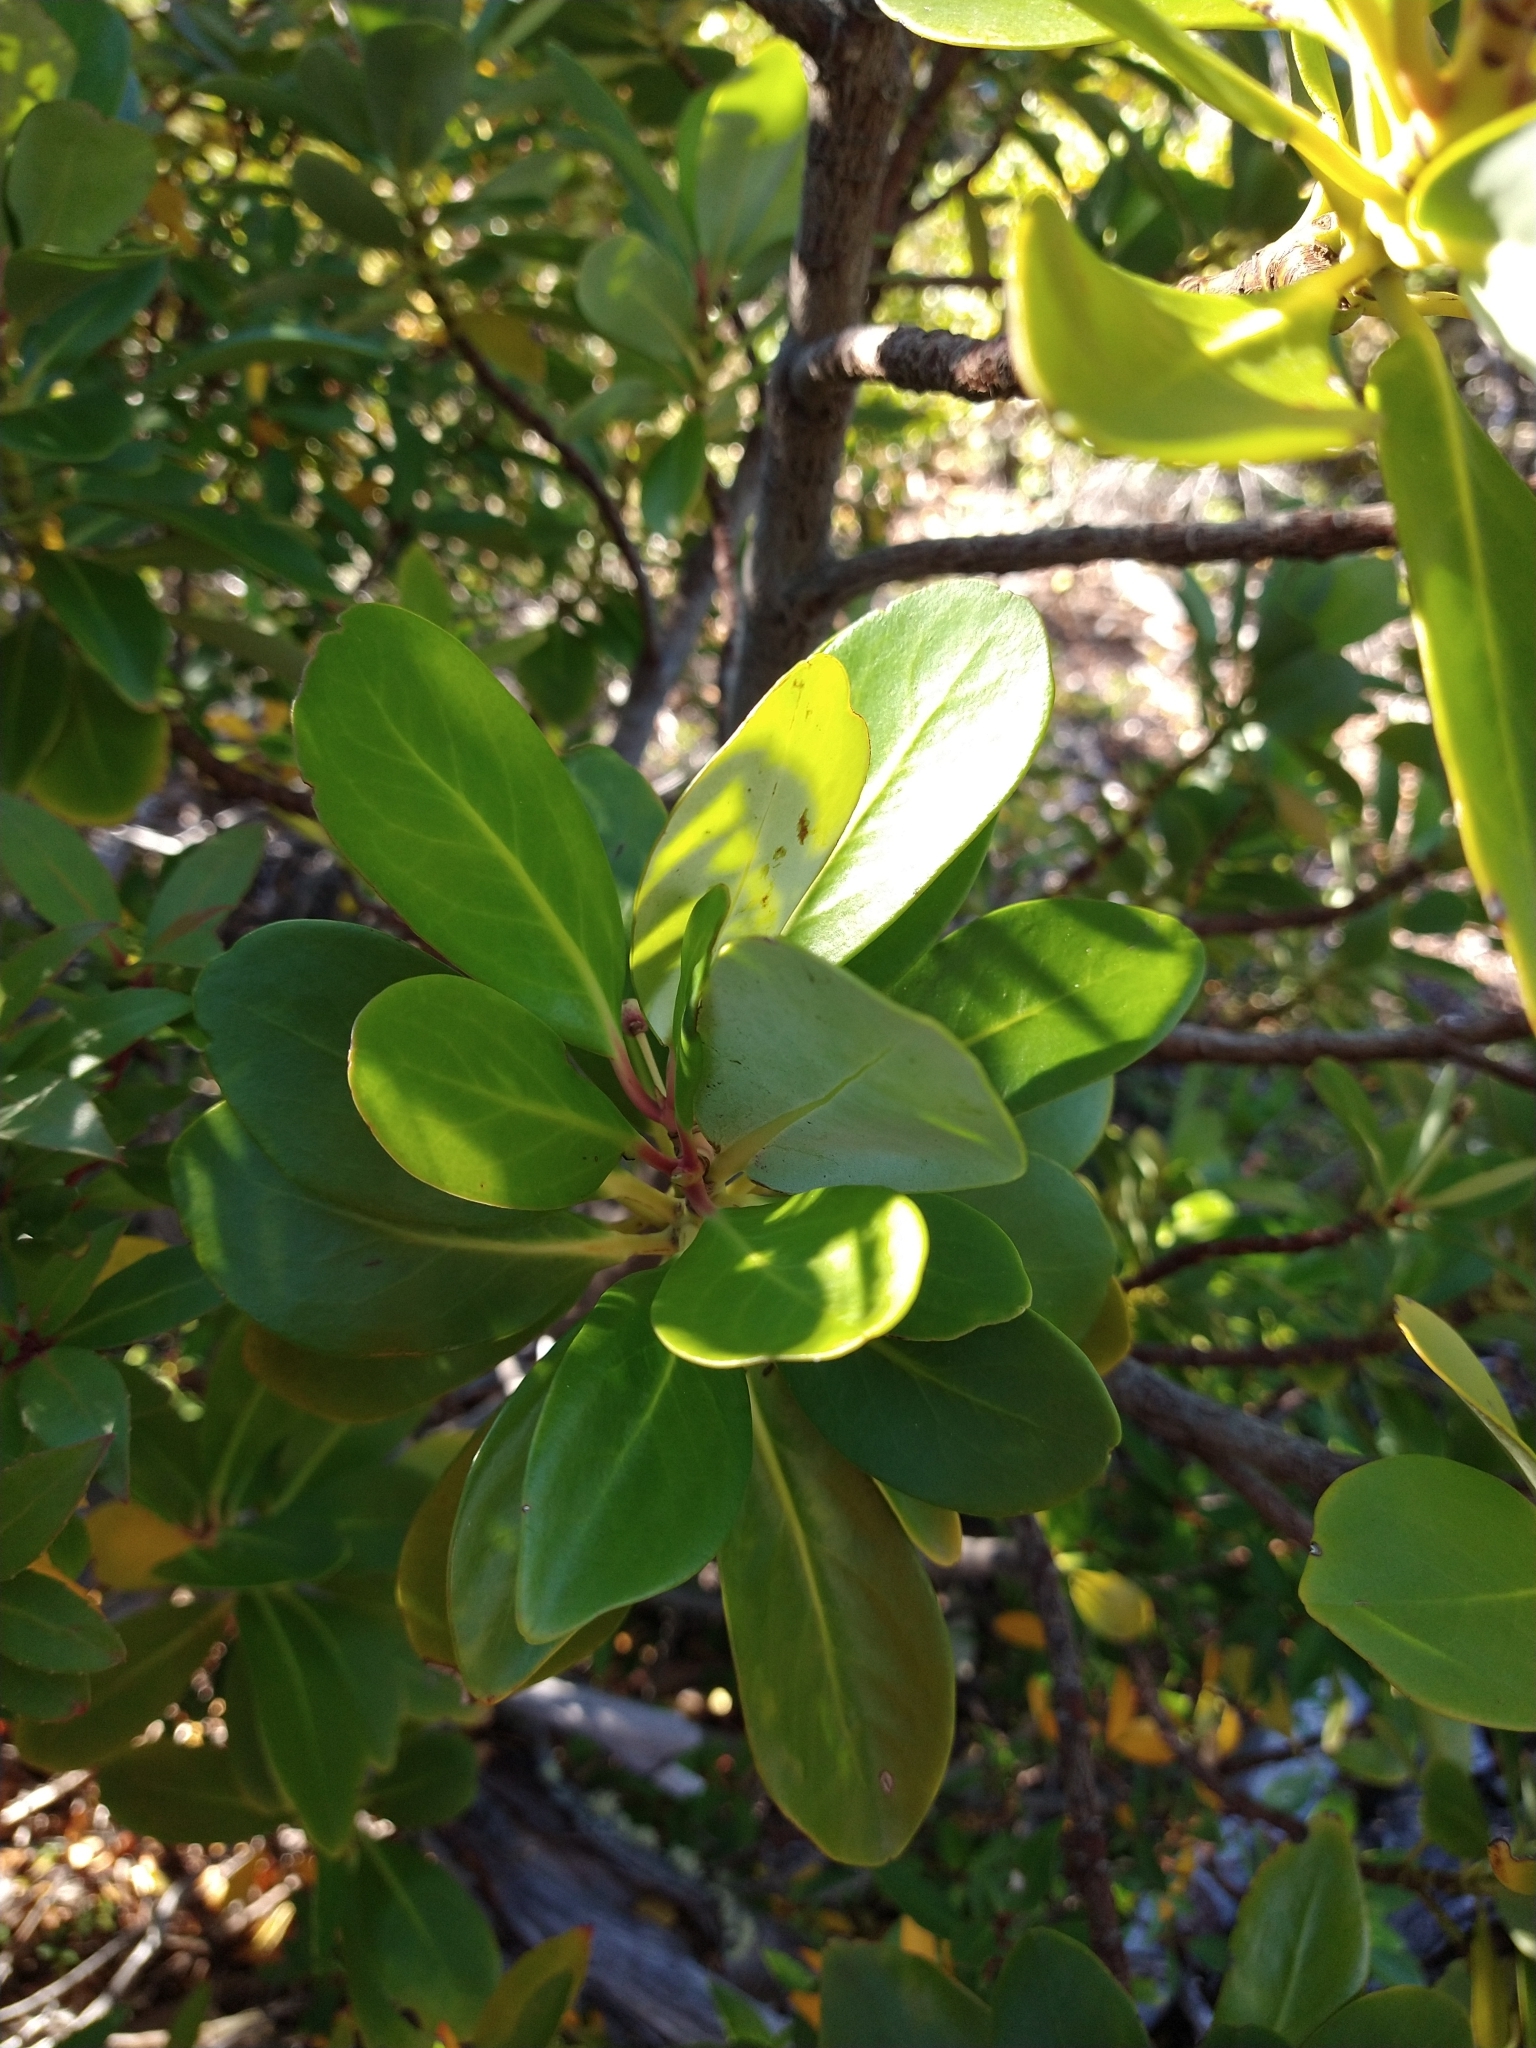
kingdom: Plantae
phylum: Tracheophyta
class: Magnoliopsida
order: Canellales
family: Winteraceae
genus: Drimys
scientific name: Drimys winteri
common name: Winter's-bark
